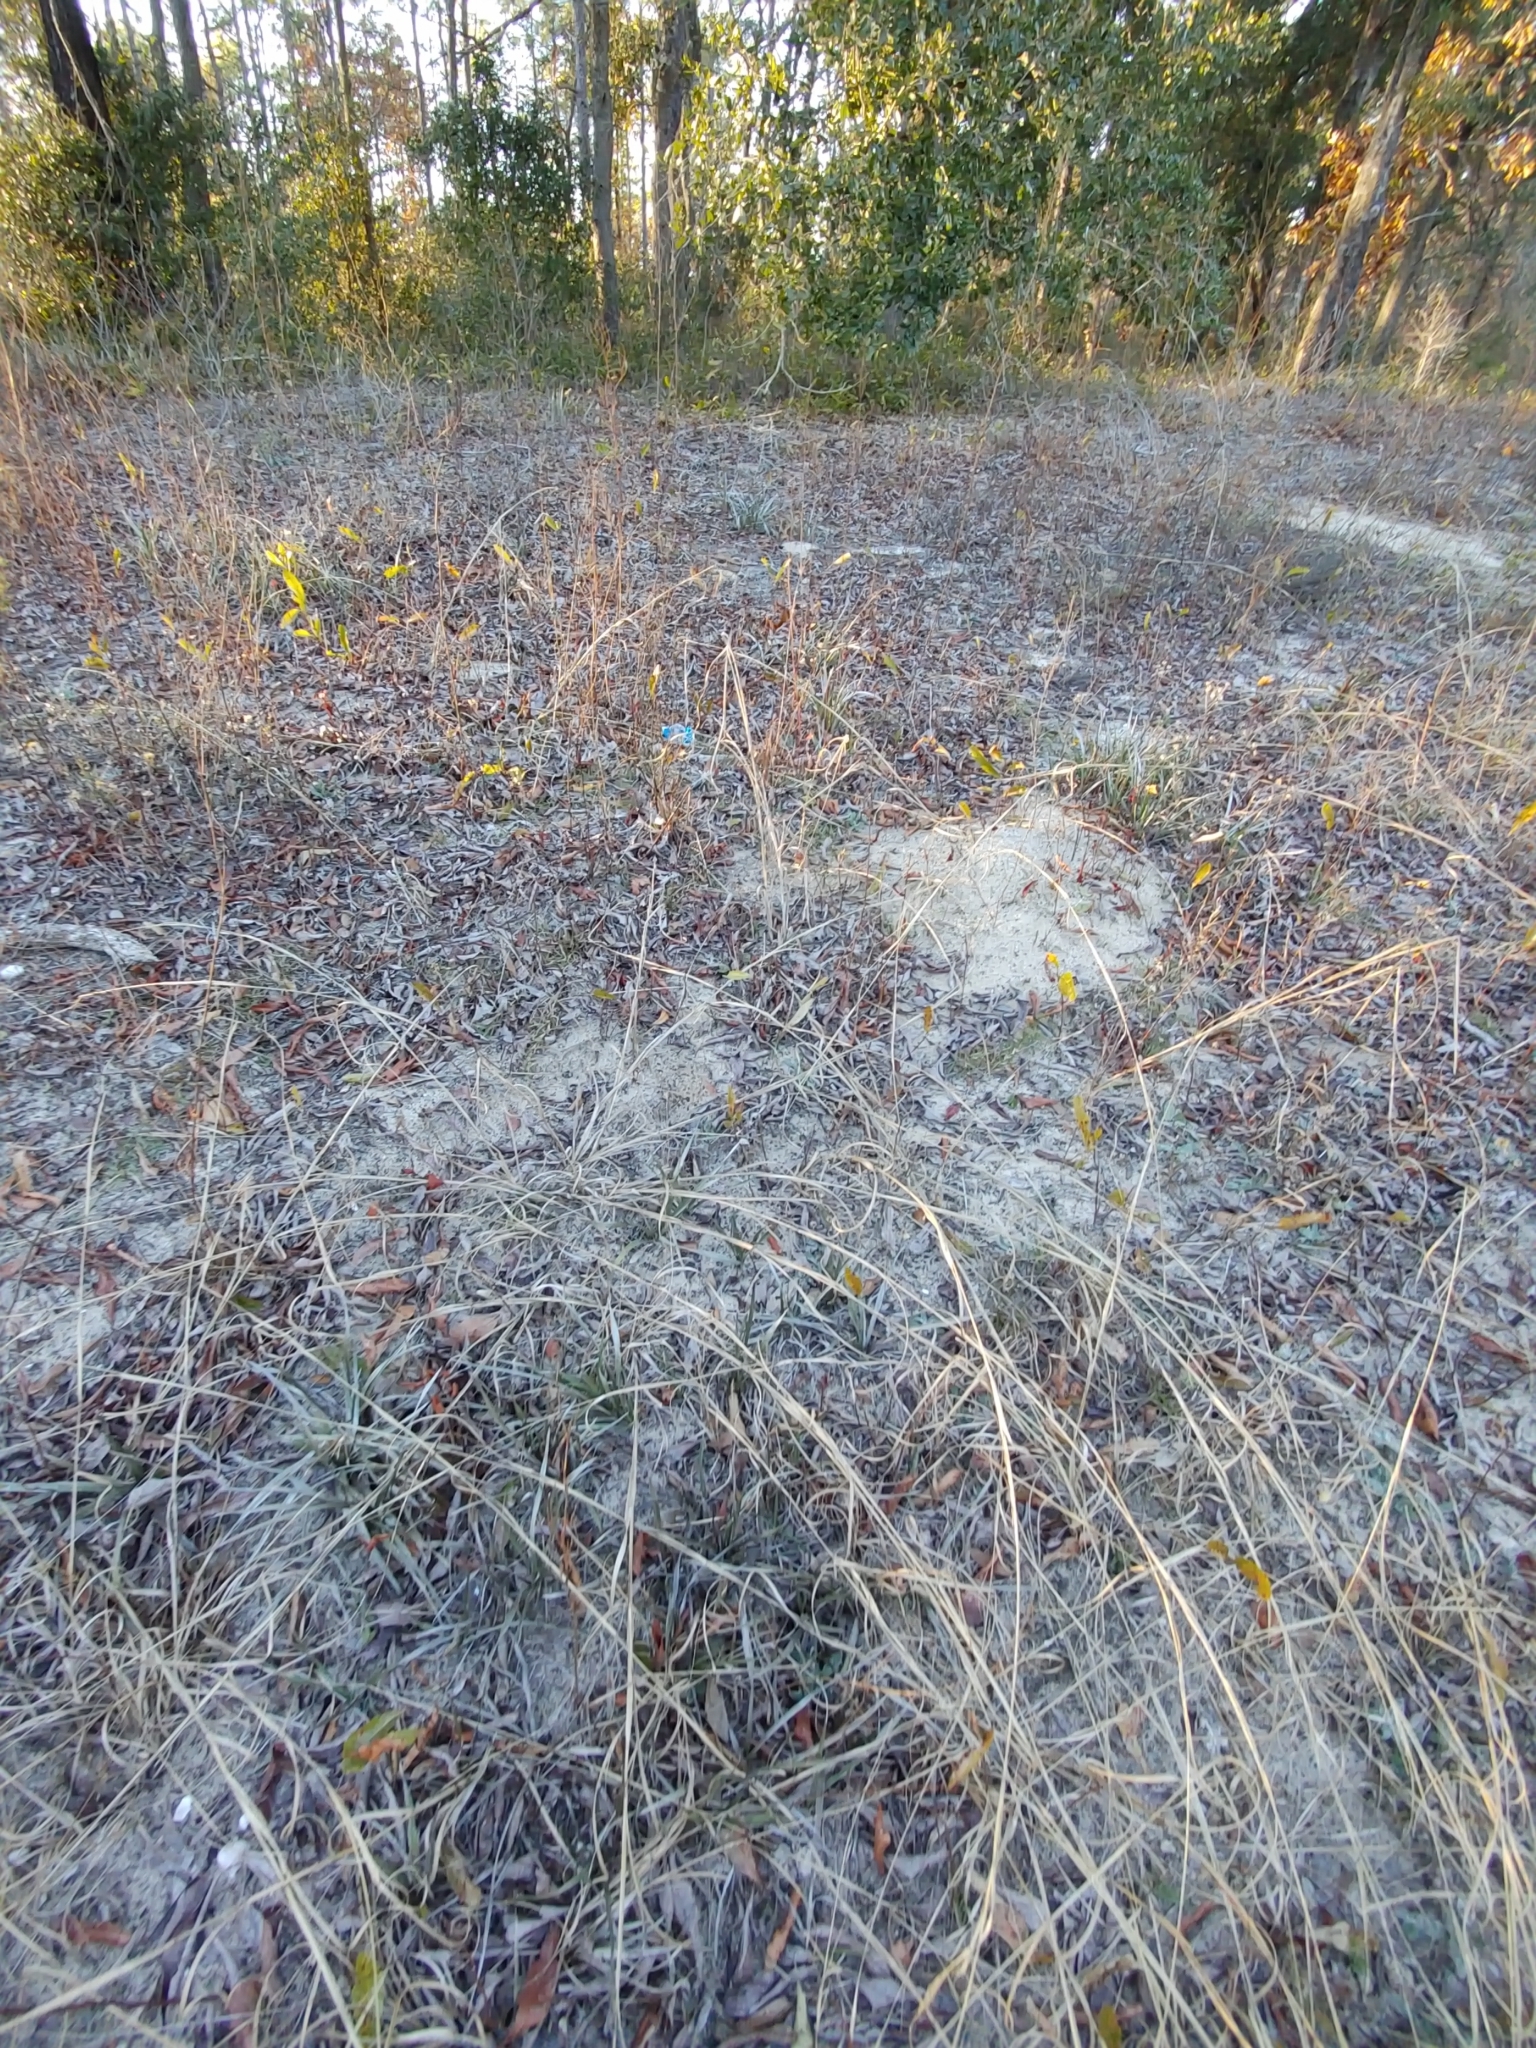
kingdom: Plantae
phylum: Tracheophyta
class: Magnoliopsida
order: Asterales
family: Asteraceae
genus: Pityopsis
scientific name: Pityopsis flexuosa
